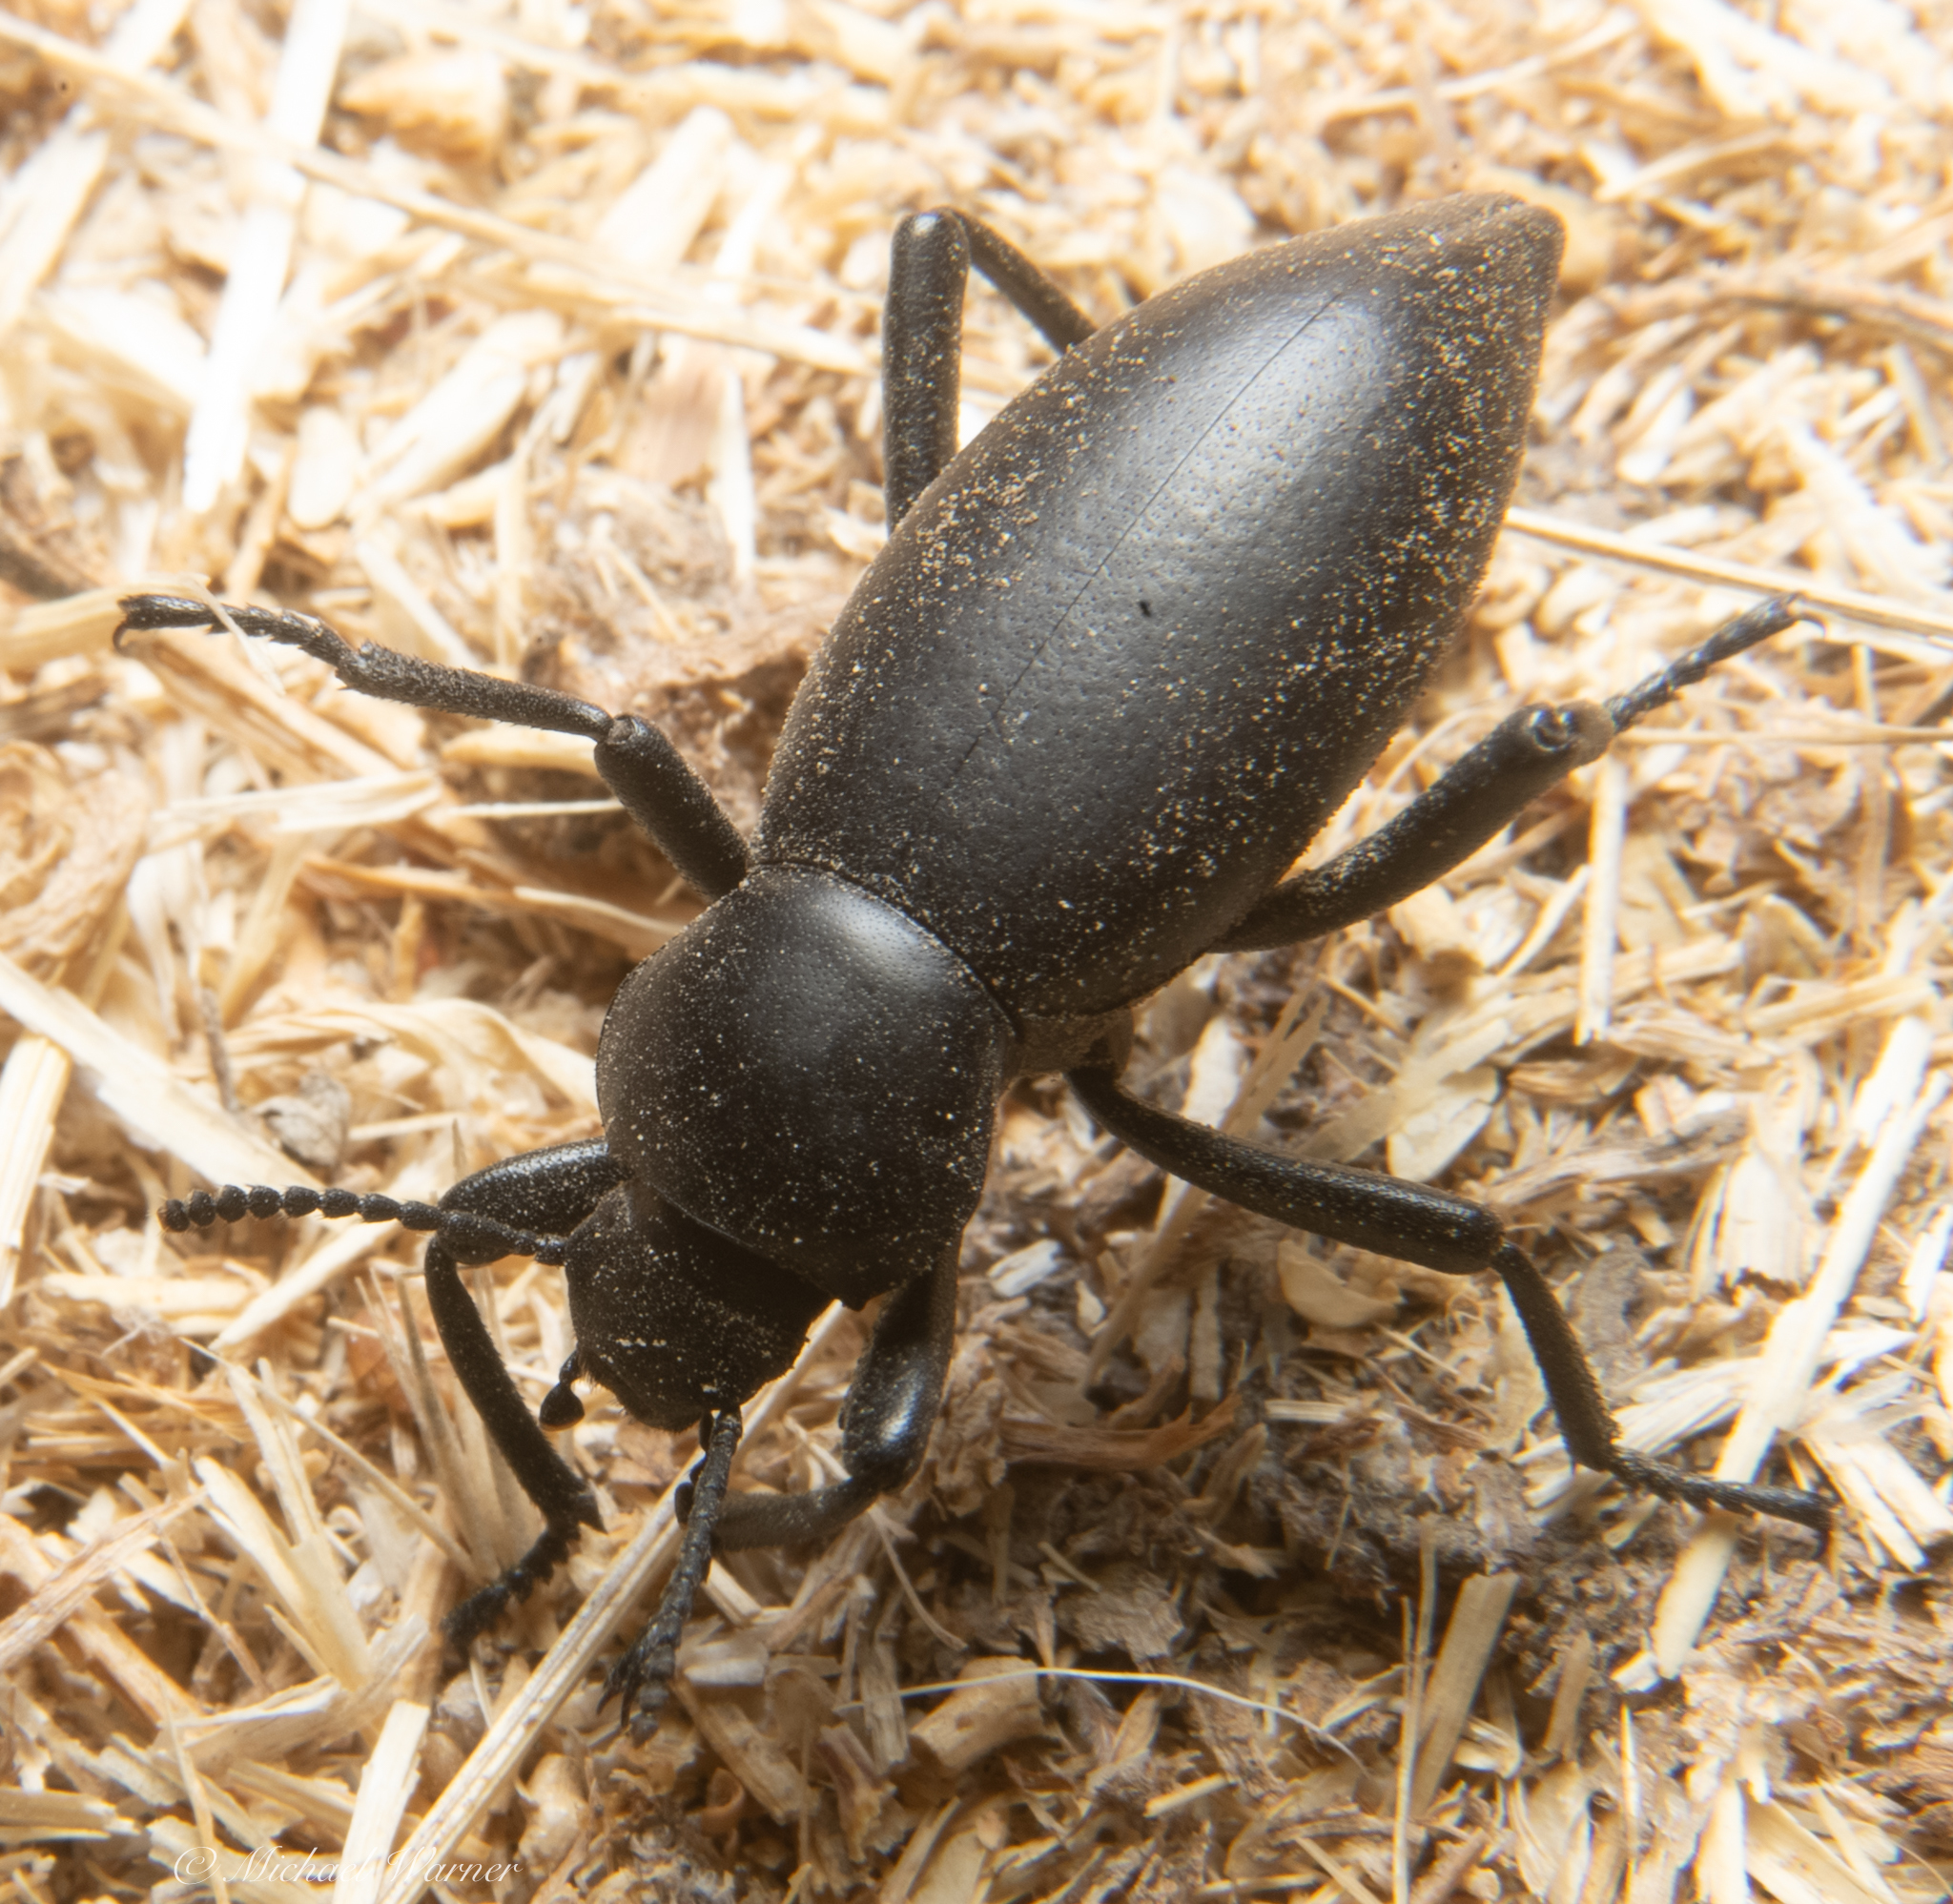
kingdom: Animalia
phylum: Arthropoda
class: Insecta
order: Coleoptera
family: Tenebrionidae
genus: Eleodes
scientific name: Eleodes dentipes
